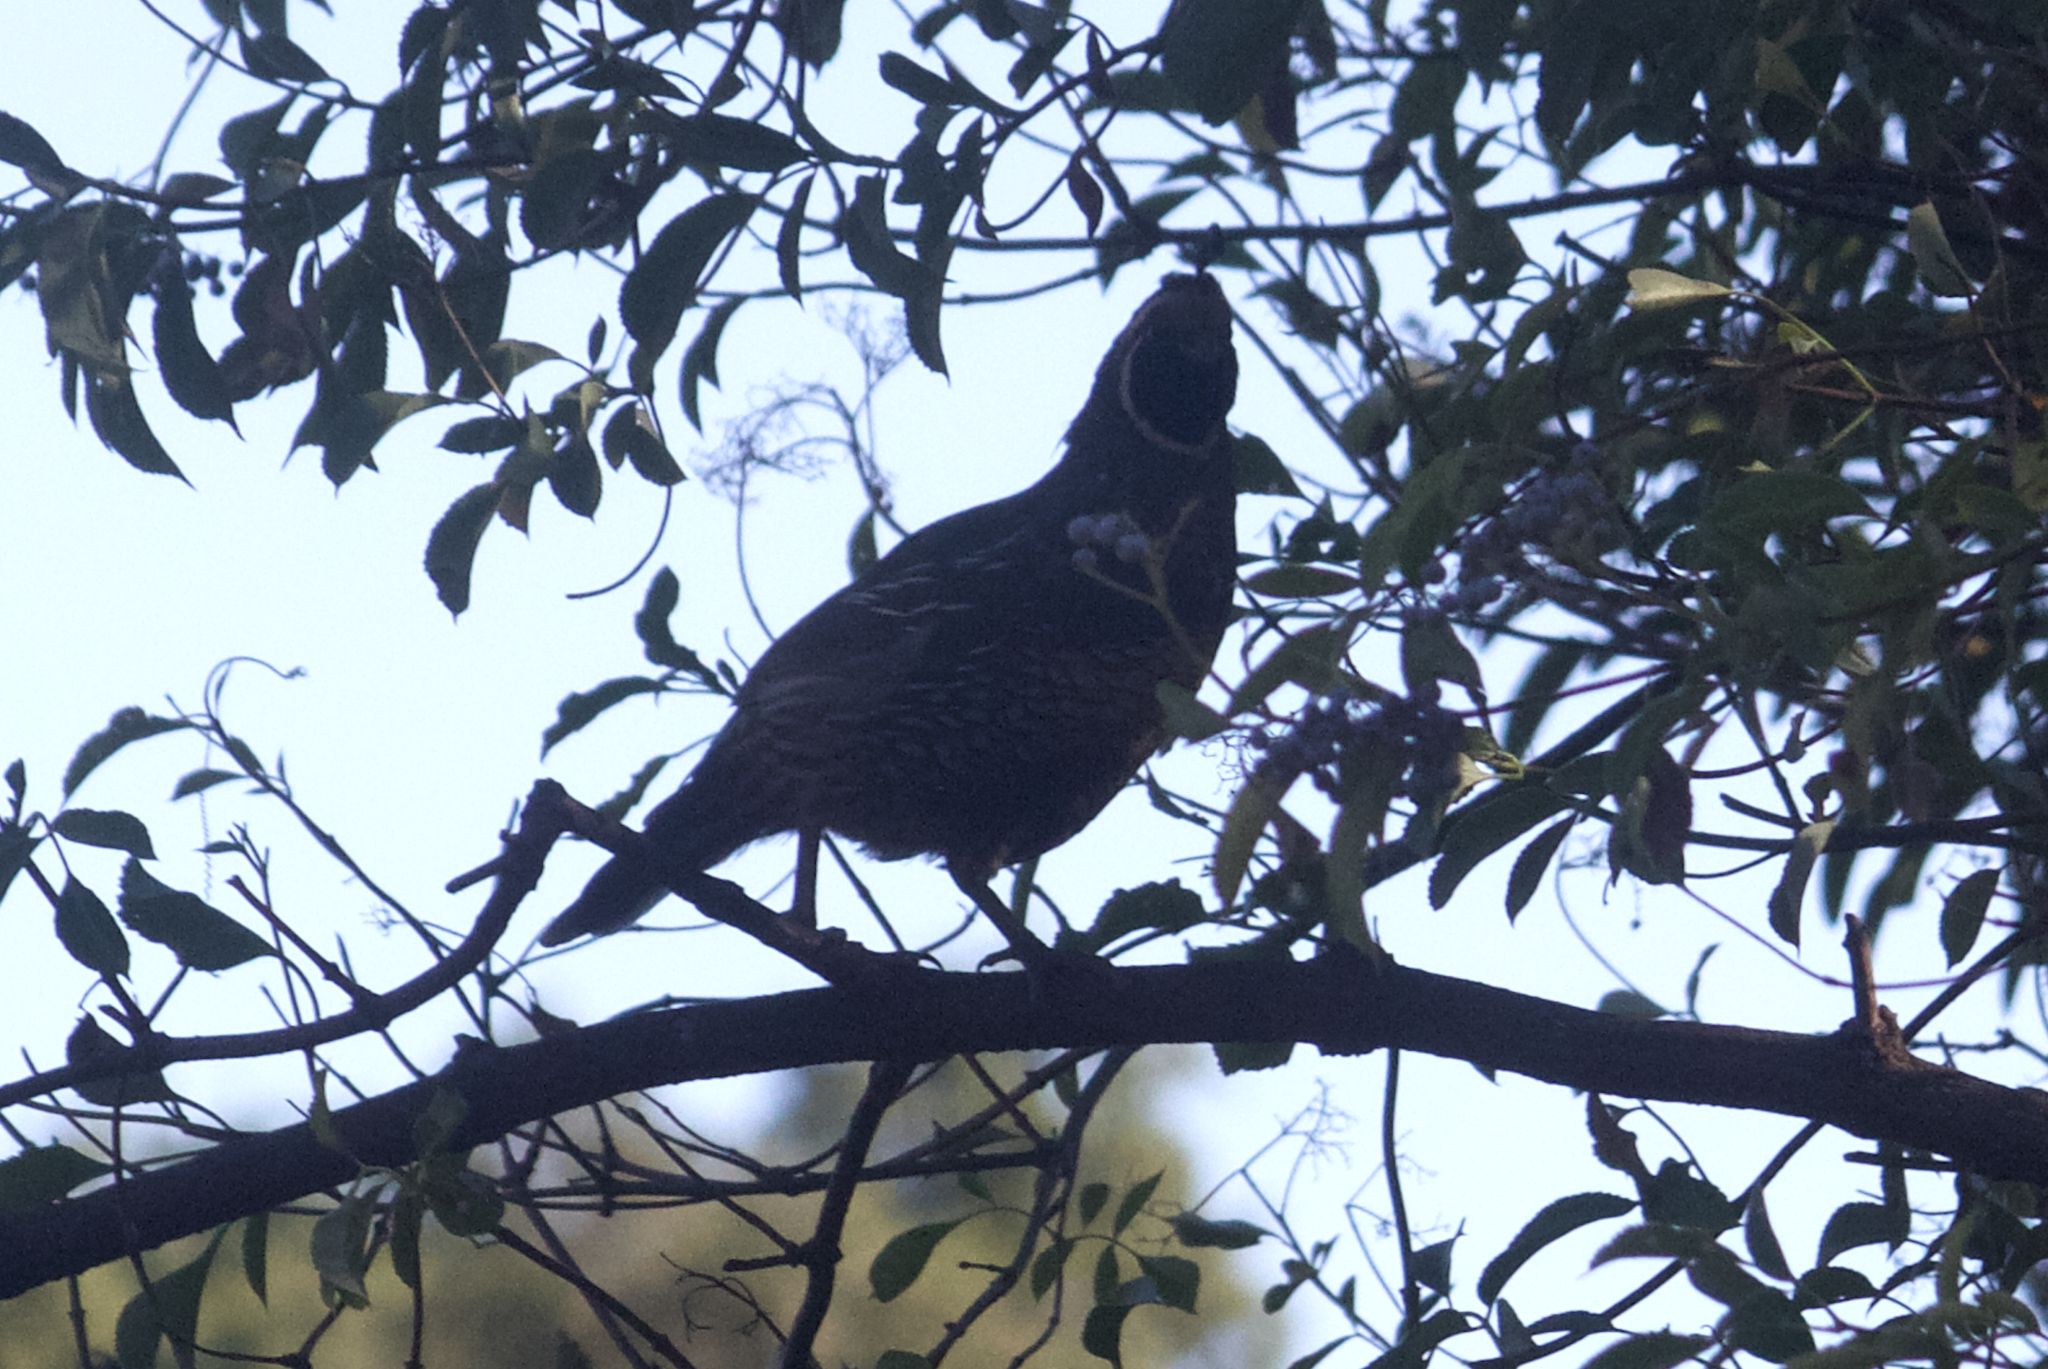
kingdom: Animalia
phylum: Chordata
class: Aves
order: Galliformes
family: Odontophoridae
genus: Callipepla
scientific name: Callipepla californica
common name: California quail
